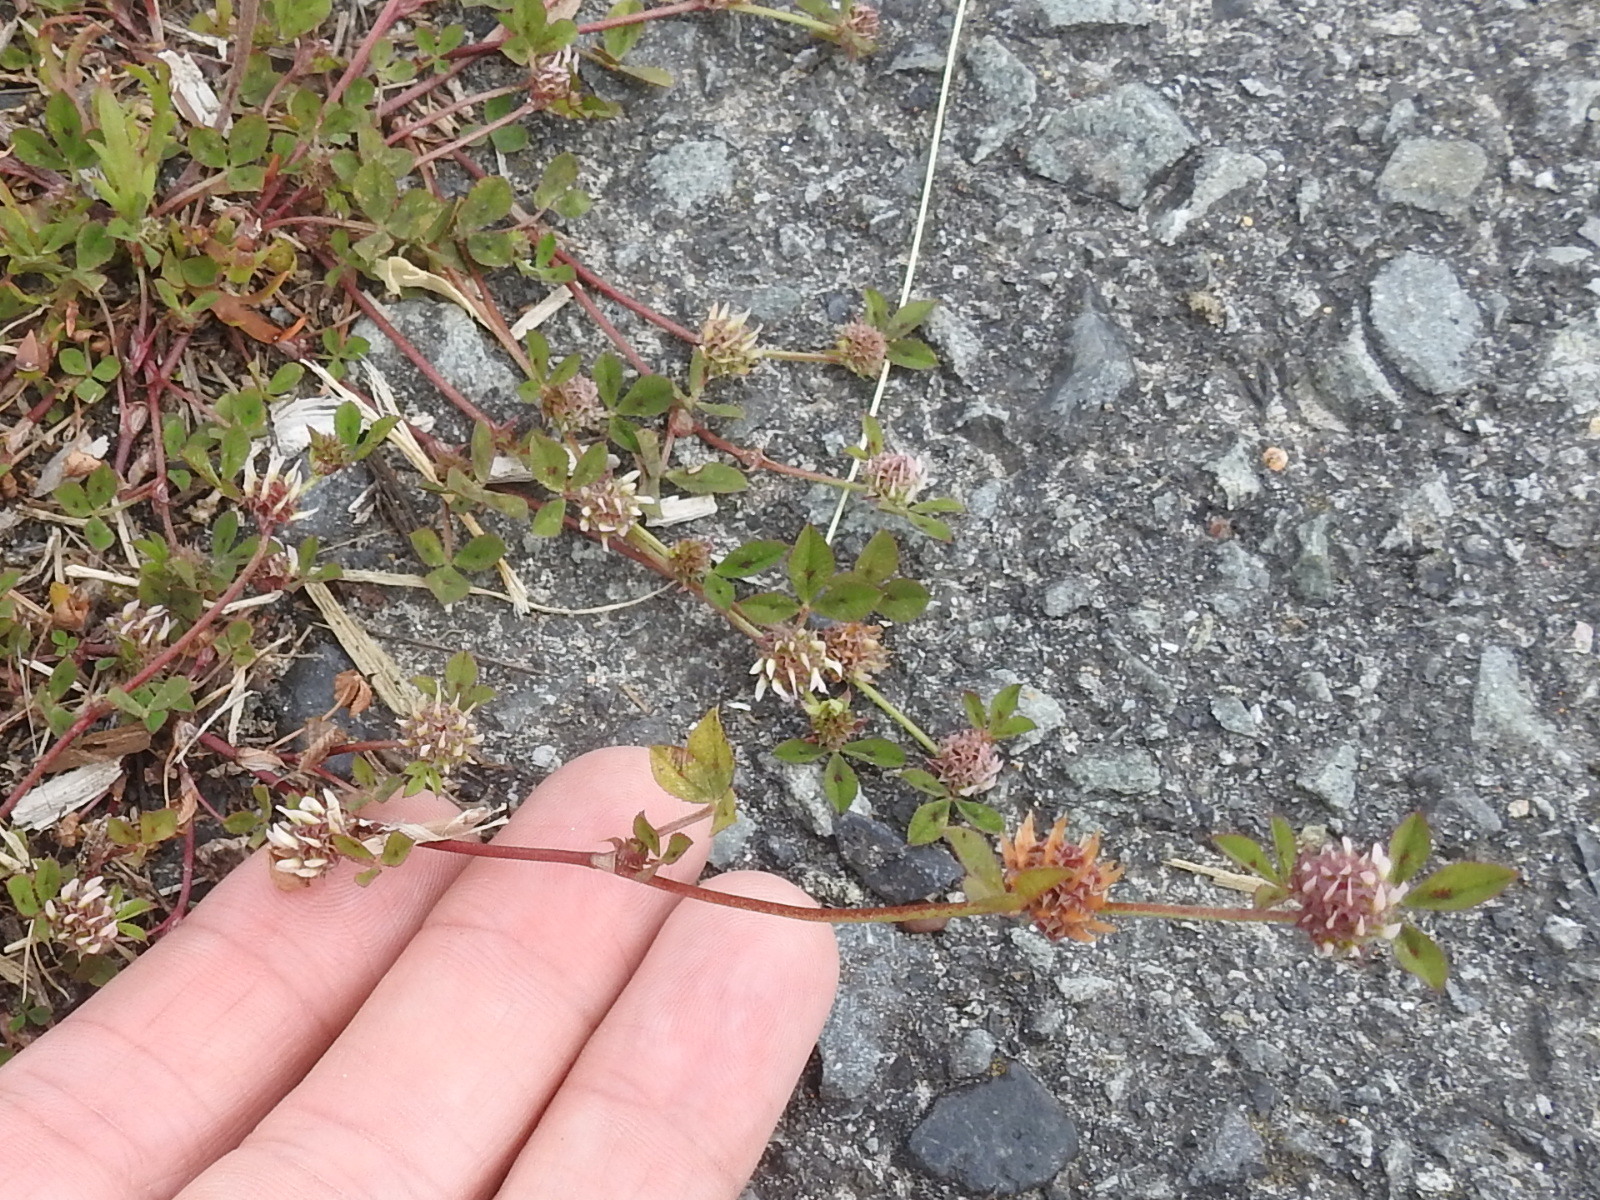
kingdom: Plantae
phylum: Tracheophyta
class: Magnoliopsida
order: Fabales
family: Fabaceae
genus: Trifolium
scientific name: Trifolium glomeratum
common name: Clustered clover
